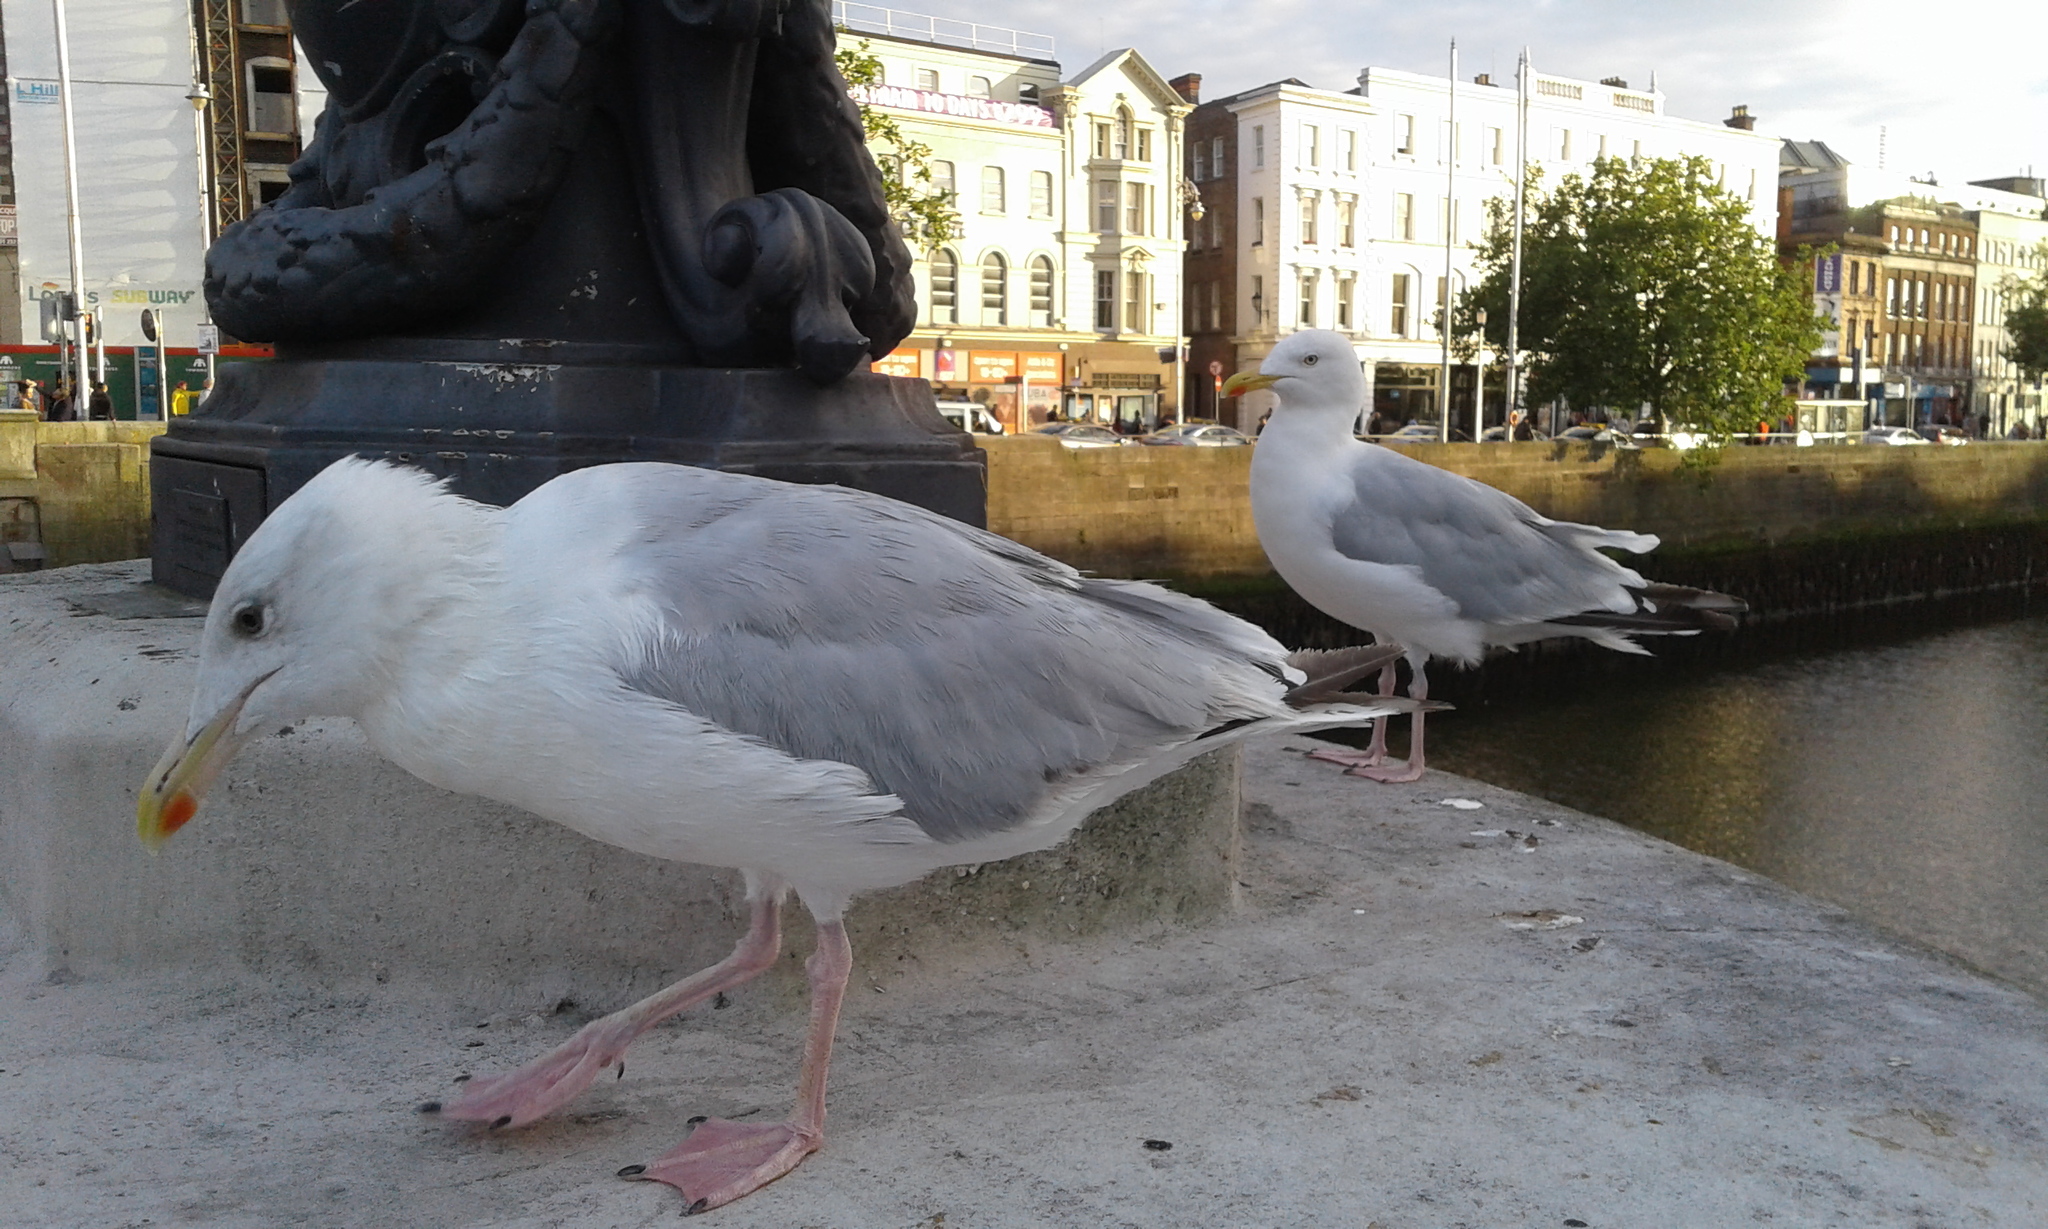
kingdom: Animalia
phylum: Chordata
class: Aves
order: Charadriiformes
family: Laridae
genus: Larus
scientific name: Larus argentatus
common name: Herring gull
